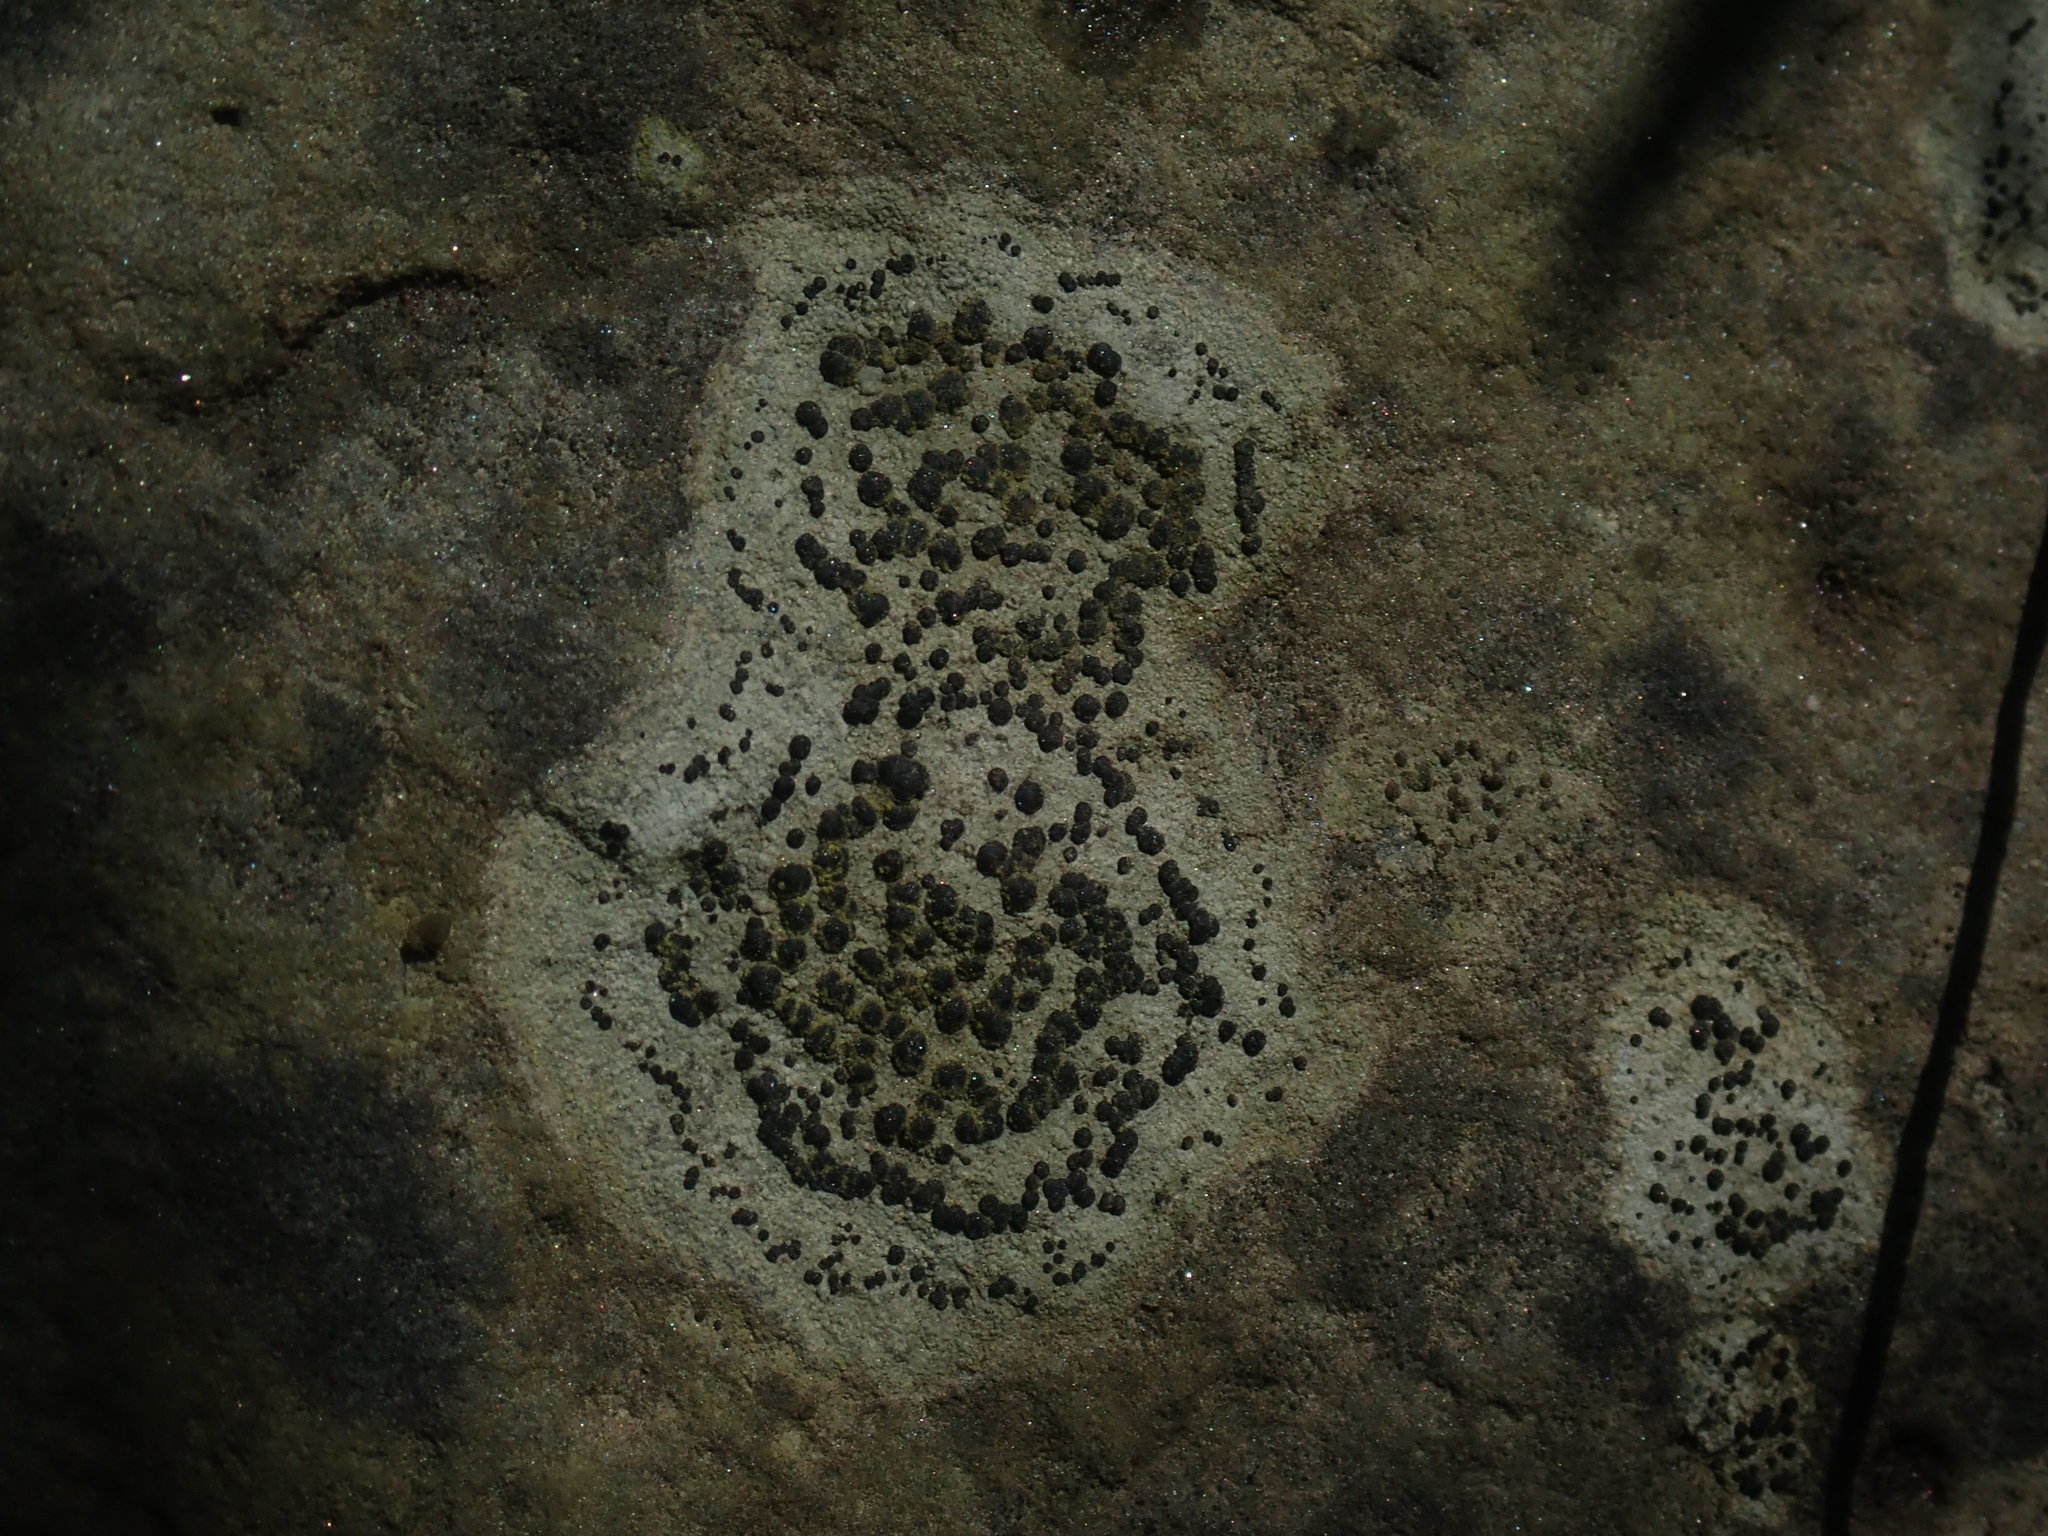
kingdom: Fungi
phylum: Ascomycota
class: Lecanoromycetes
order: Lecideales
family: Lecideaceae
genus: Porpidia
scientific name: Porpidia crustulata
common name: Concentric boulder lichen
